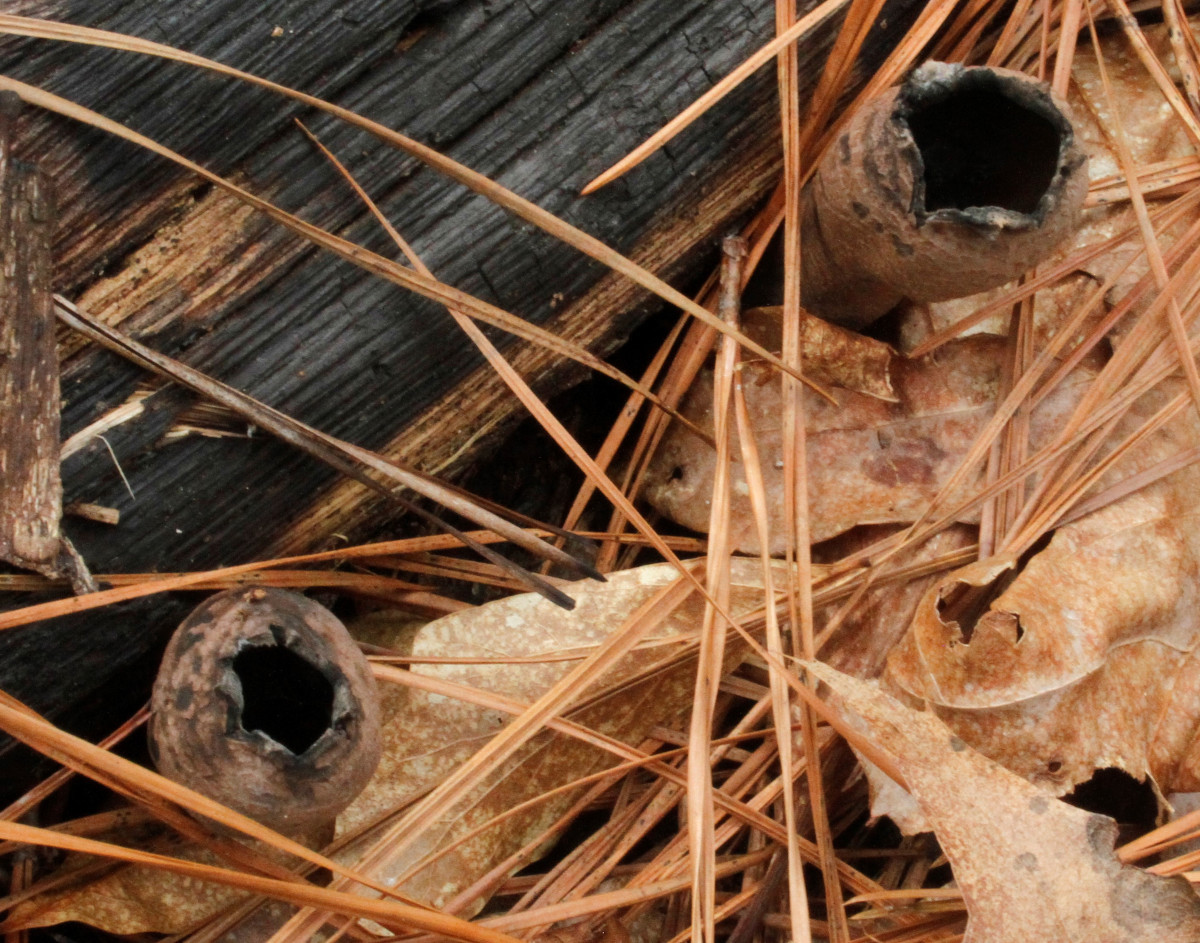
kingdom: Fungi
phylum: Ascomycota
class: Pezizomycetes
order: Pezizales
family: Sarcosomataceae
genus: Urnula
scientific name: Urnula craterium
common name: Devil's urn
